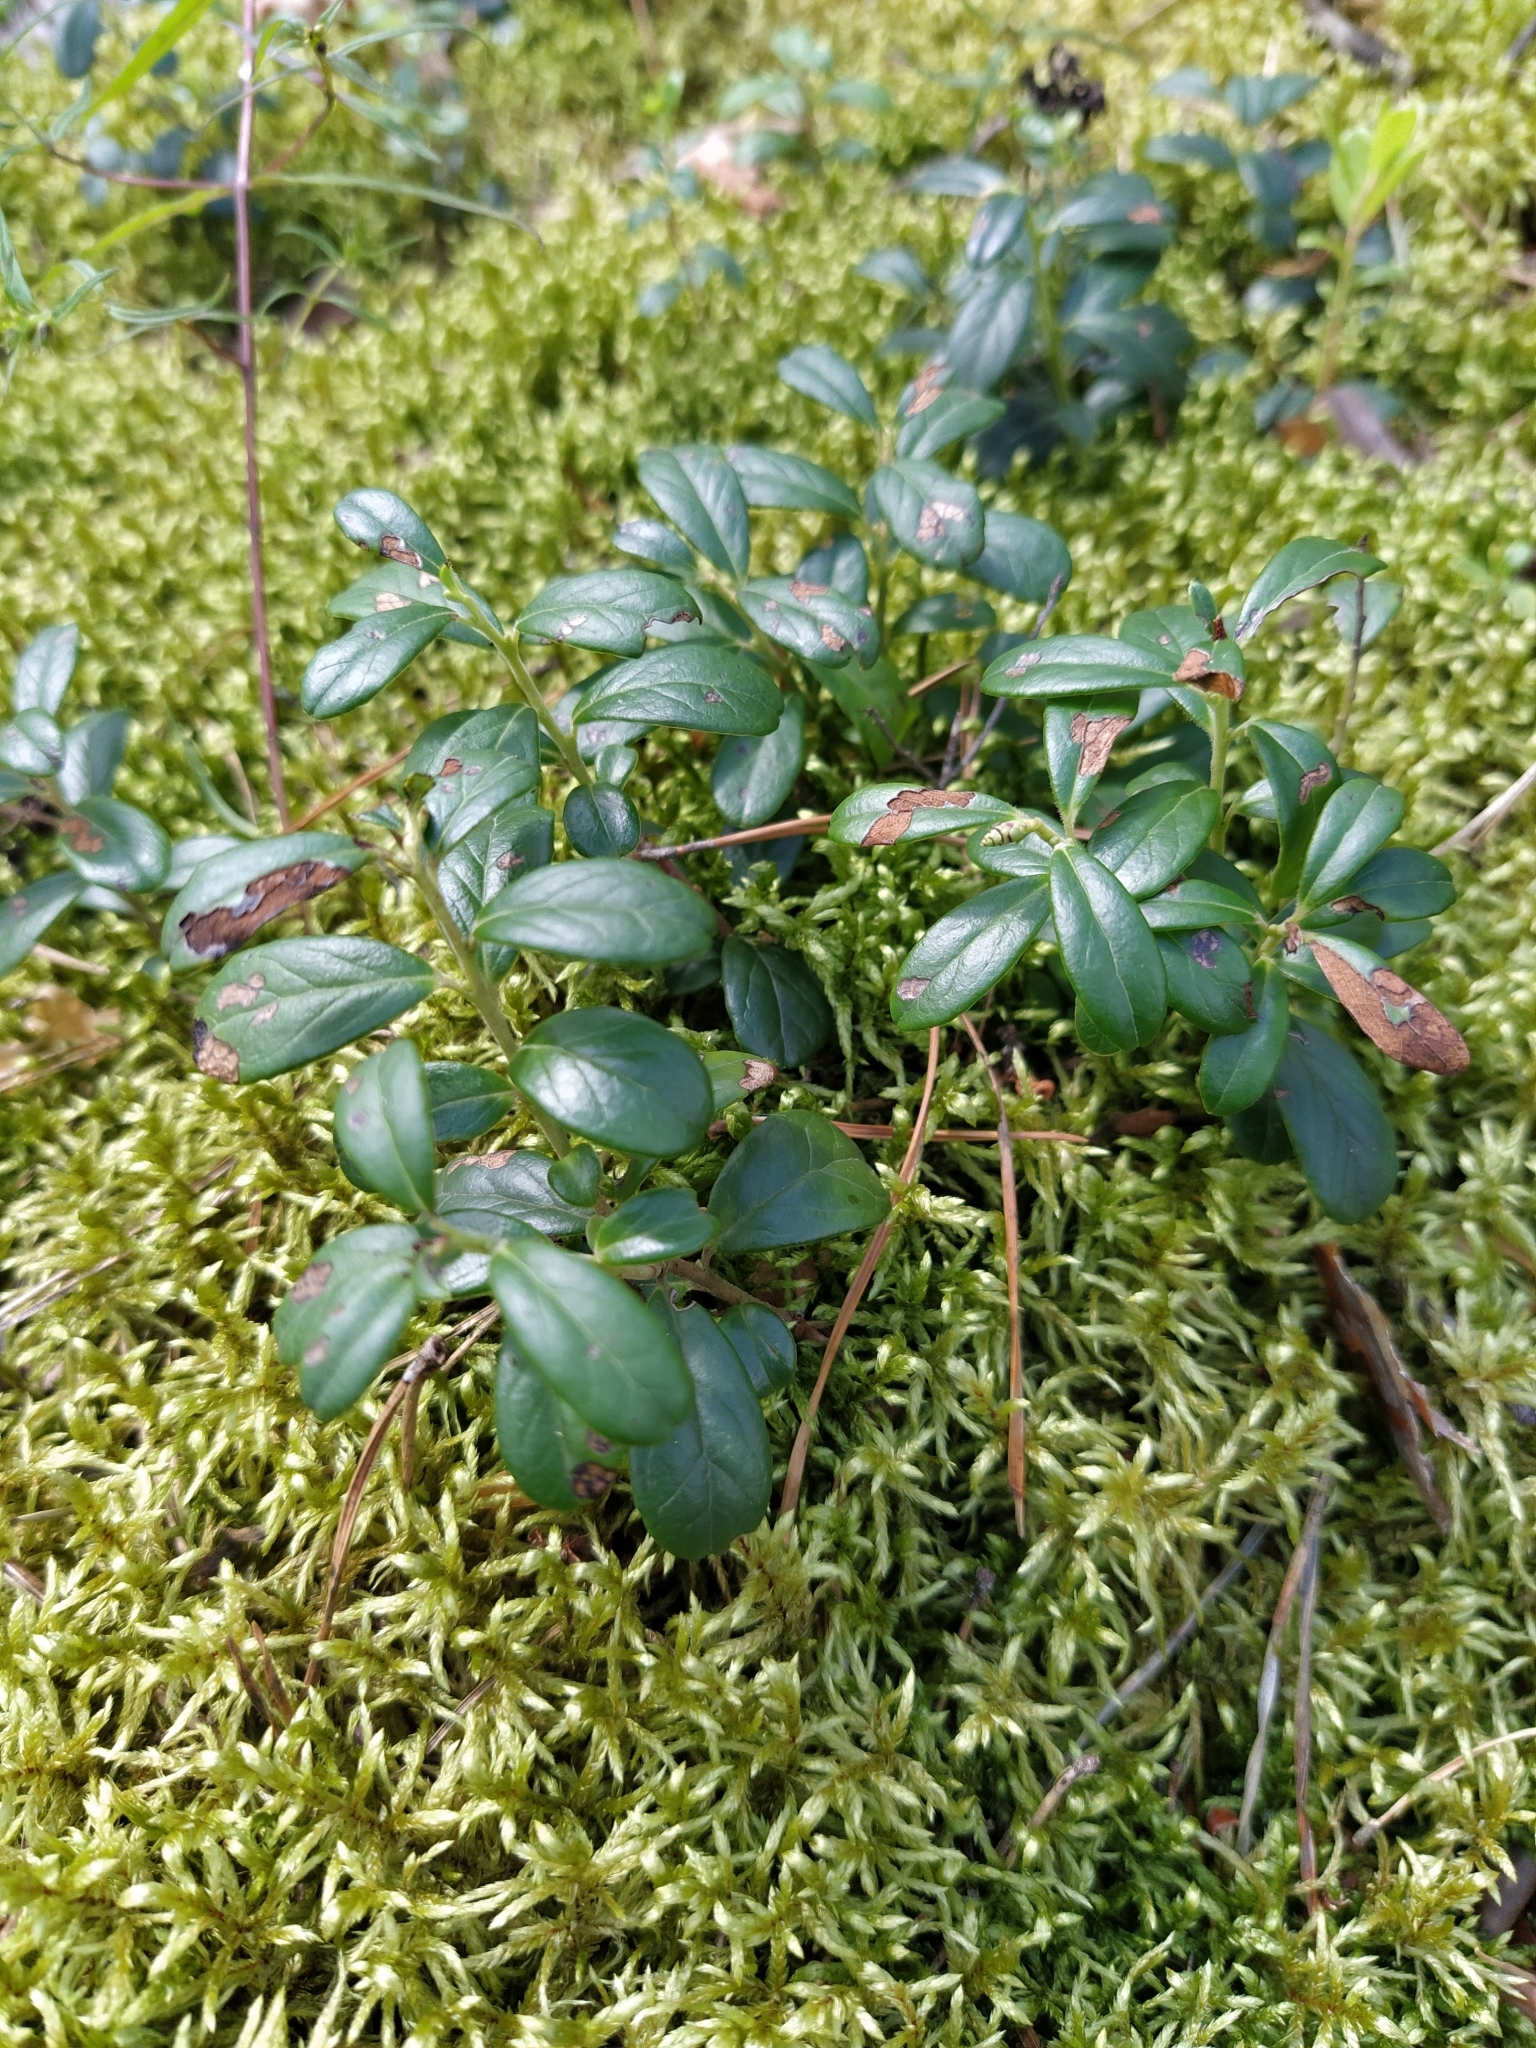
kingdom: Plantae
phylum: Tracheophyta
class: Magnoliopsida
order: Ericales
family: Ericaceae
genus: Vaccinium
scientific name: Vaccinium vitis-idaea
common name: Cowberry
